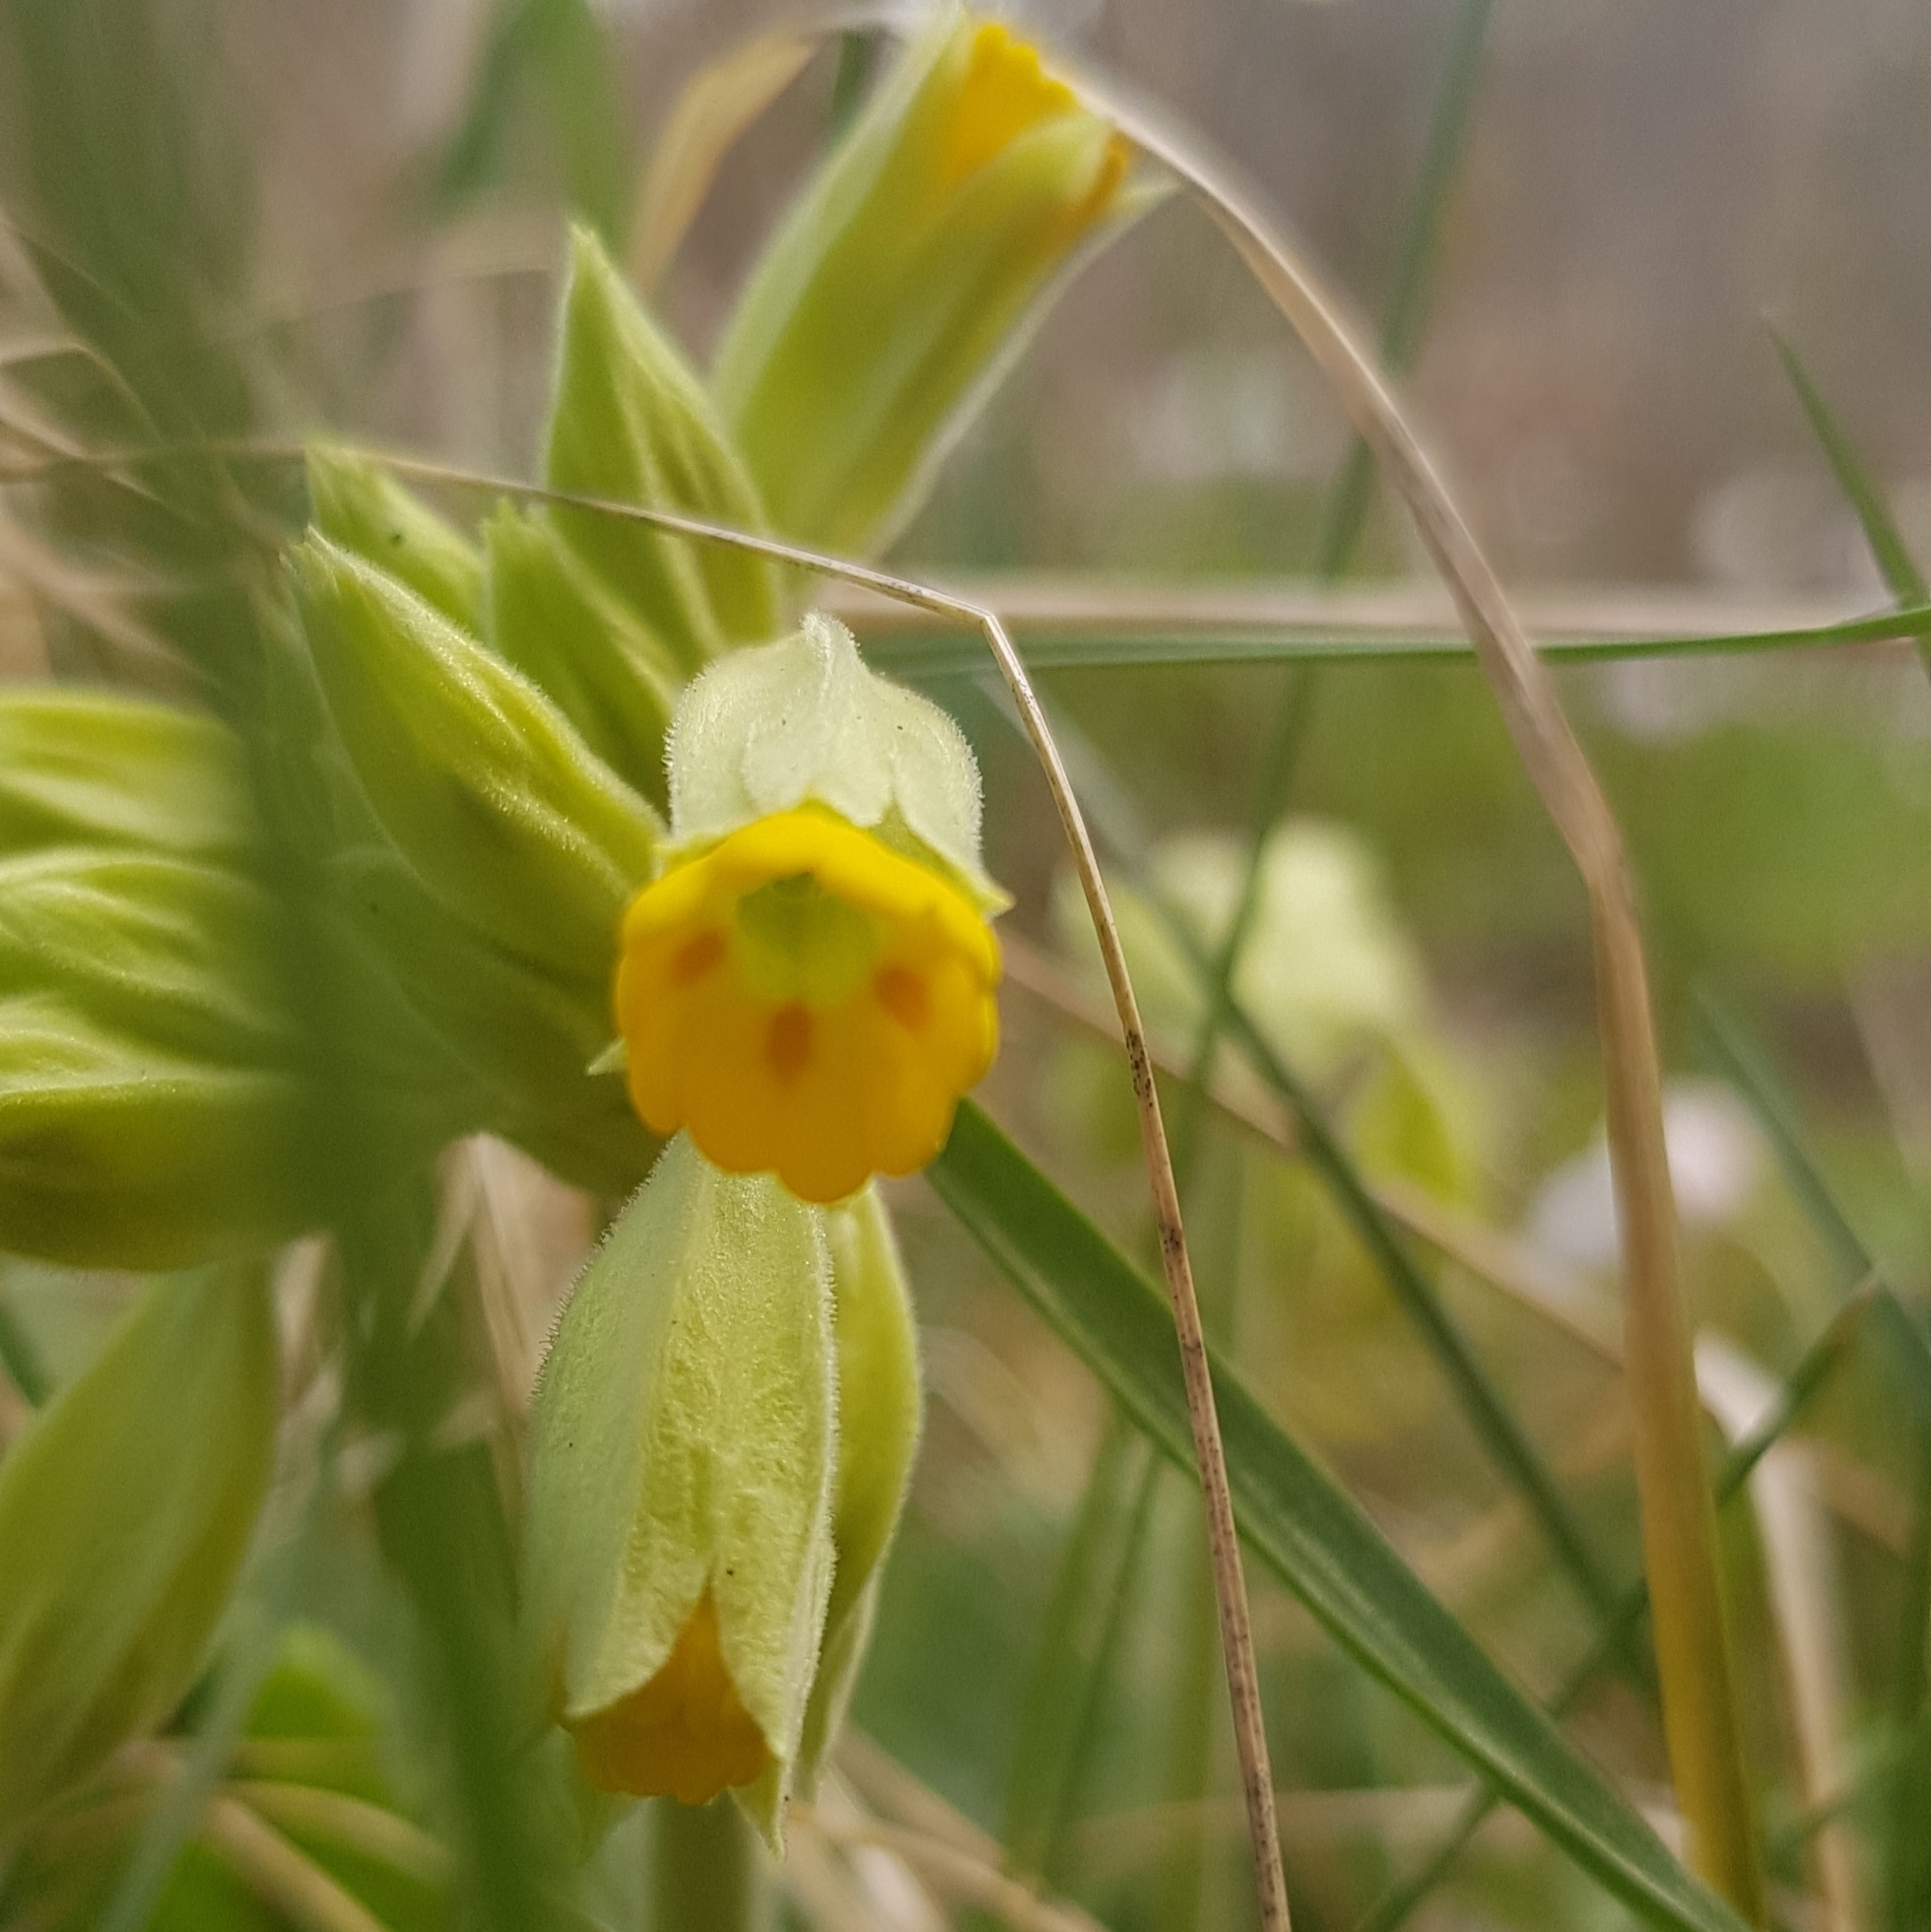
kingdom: Plantae
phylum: Tracheophyta
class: Magnoliopsida
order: Ericales
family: Primulaceae
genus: Primula
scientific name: Primula veris
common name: Cowslip
